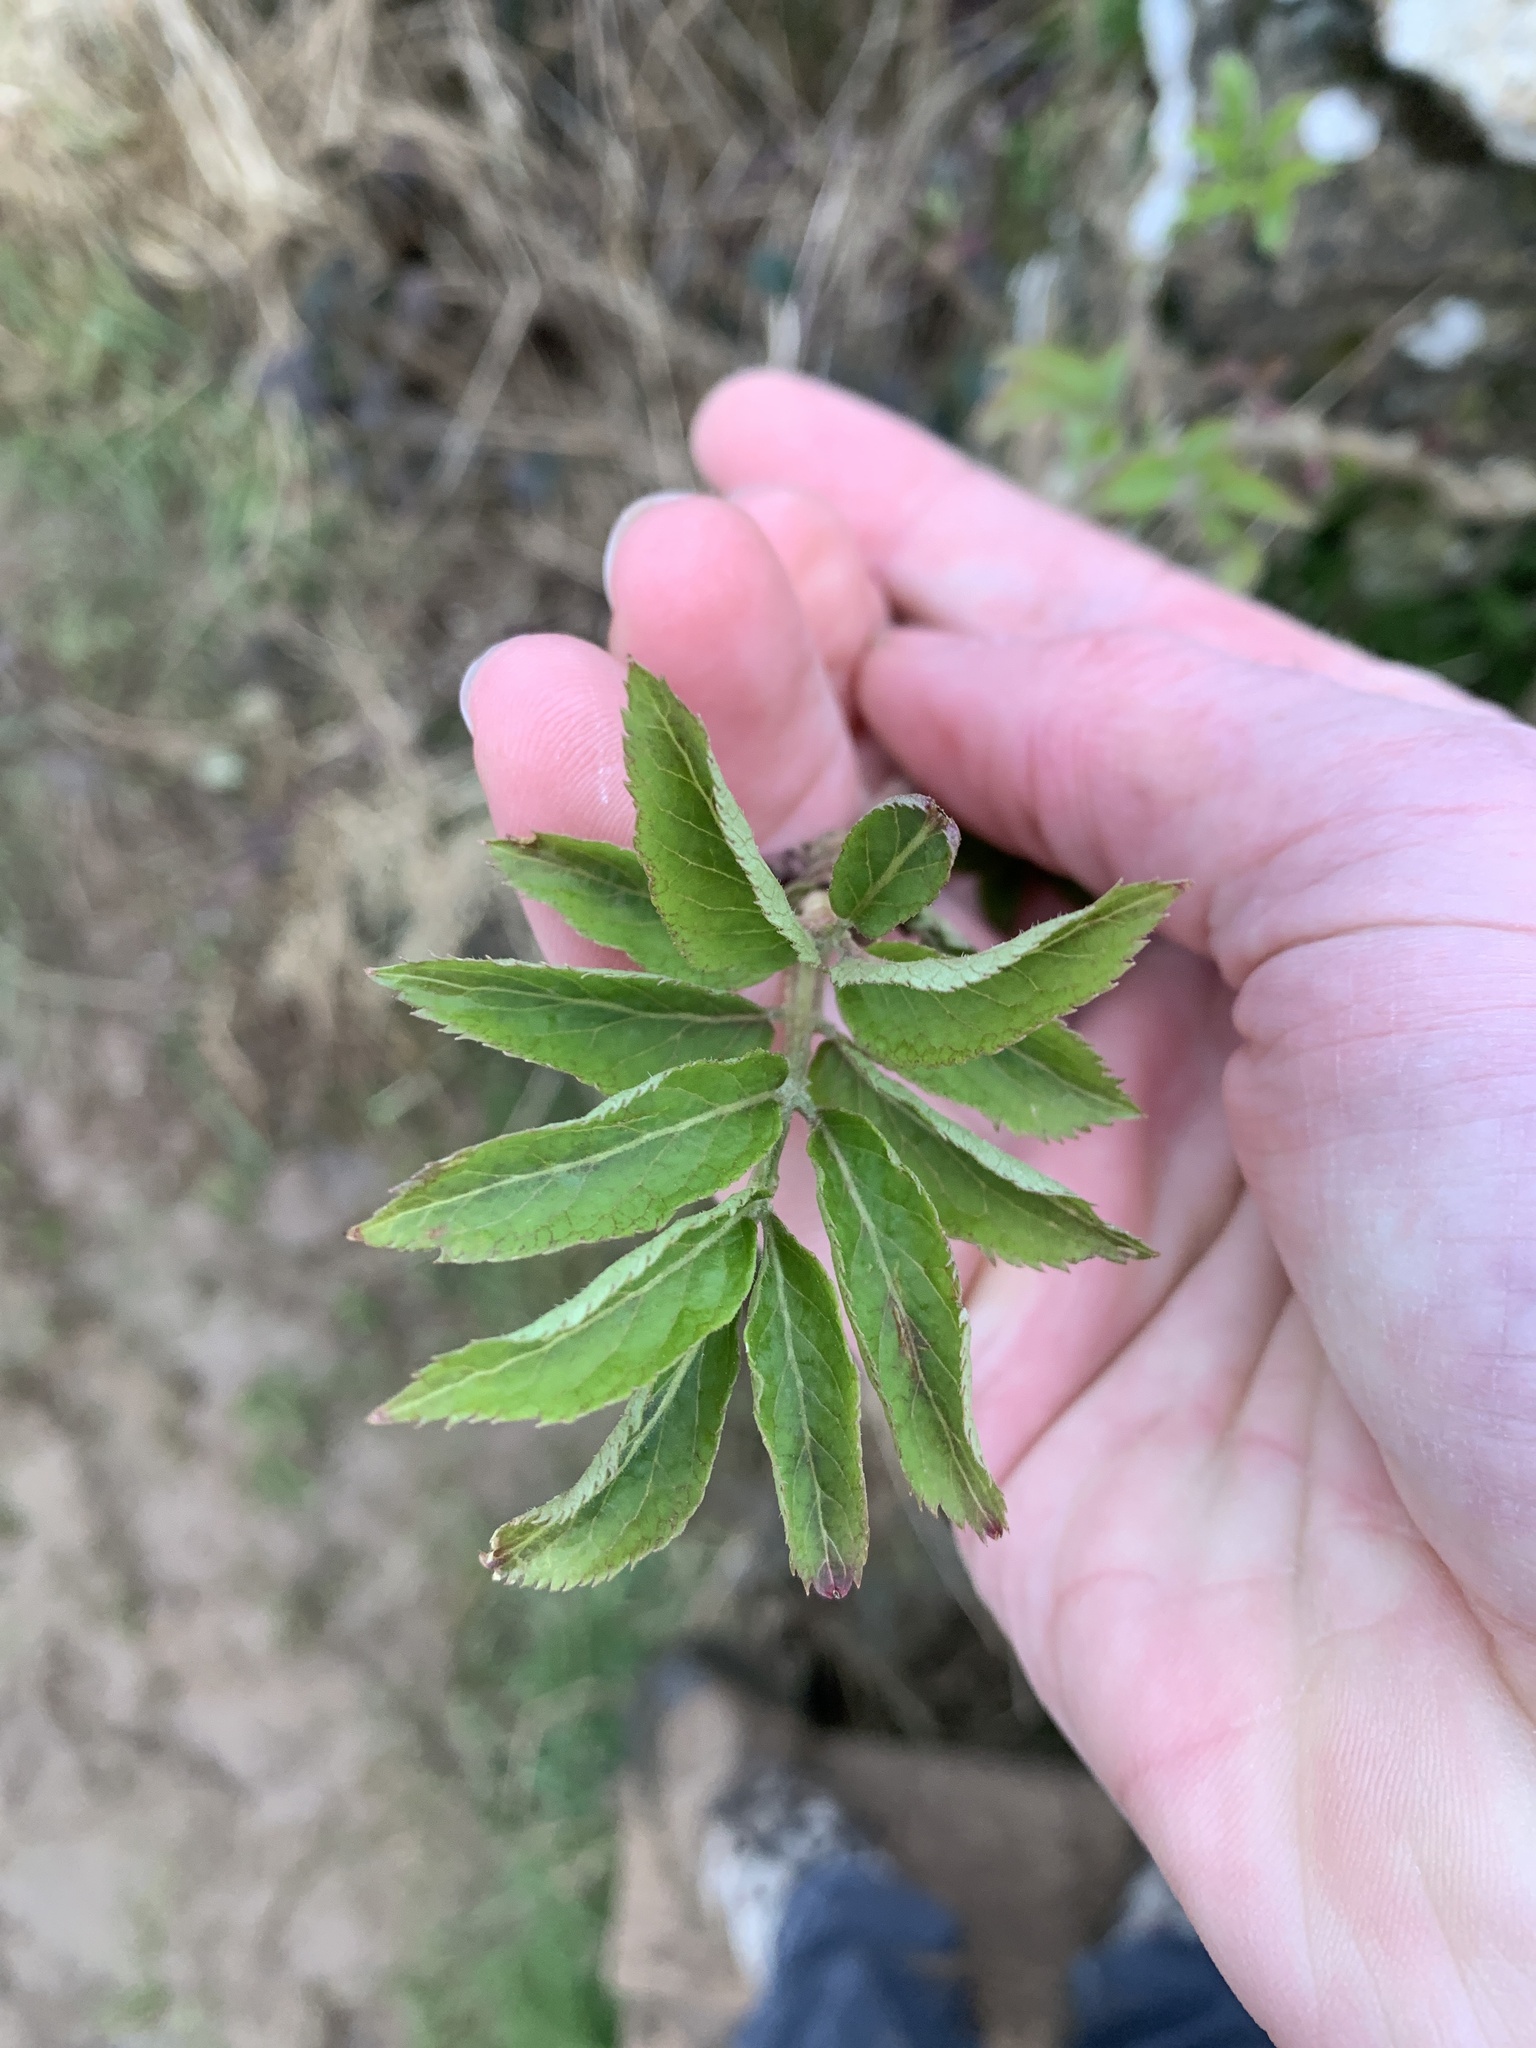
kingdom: Plantae
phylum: Tracheophyta
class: Magnoliopsida
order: Dipsacales
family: Viburnaceae
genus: Sambucus
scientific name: Sambucus nigra
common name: Elder
